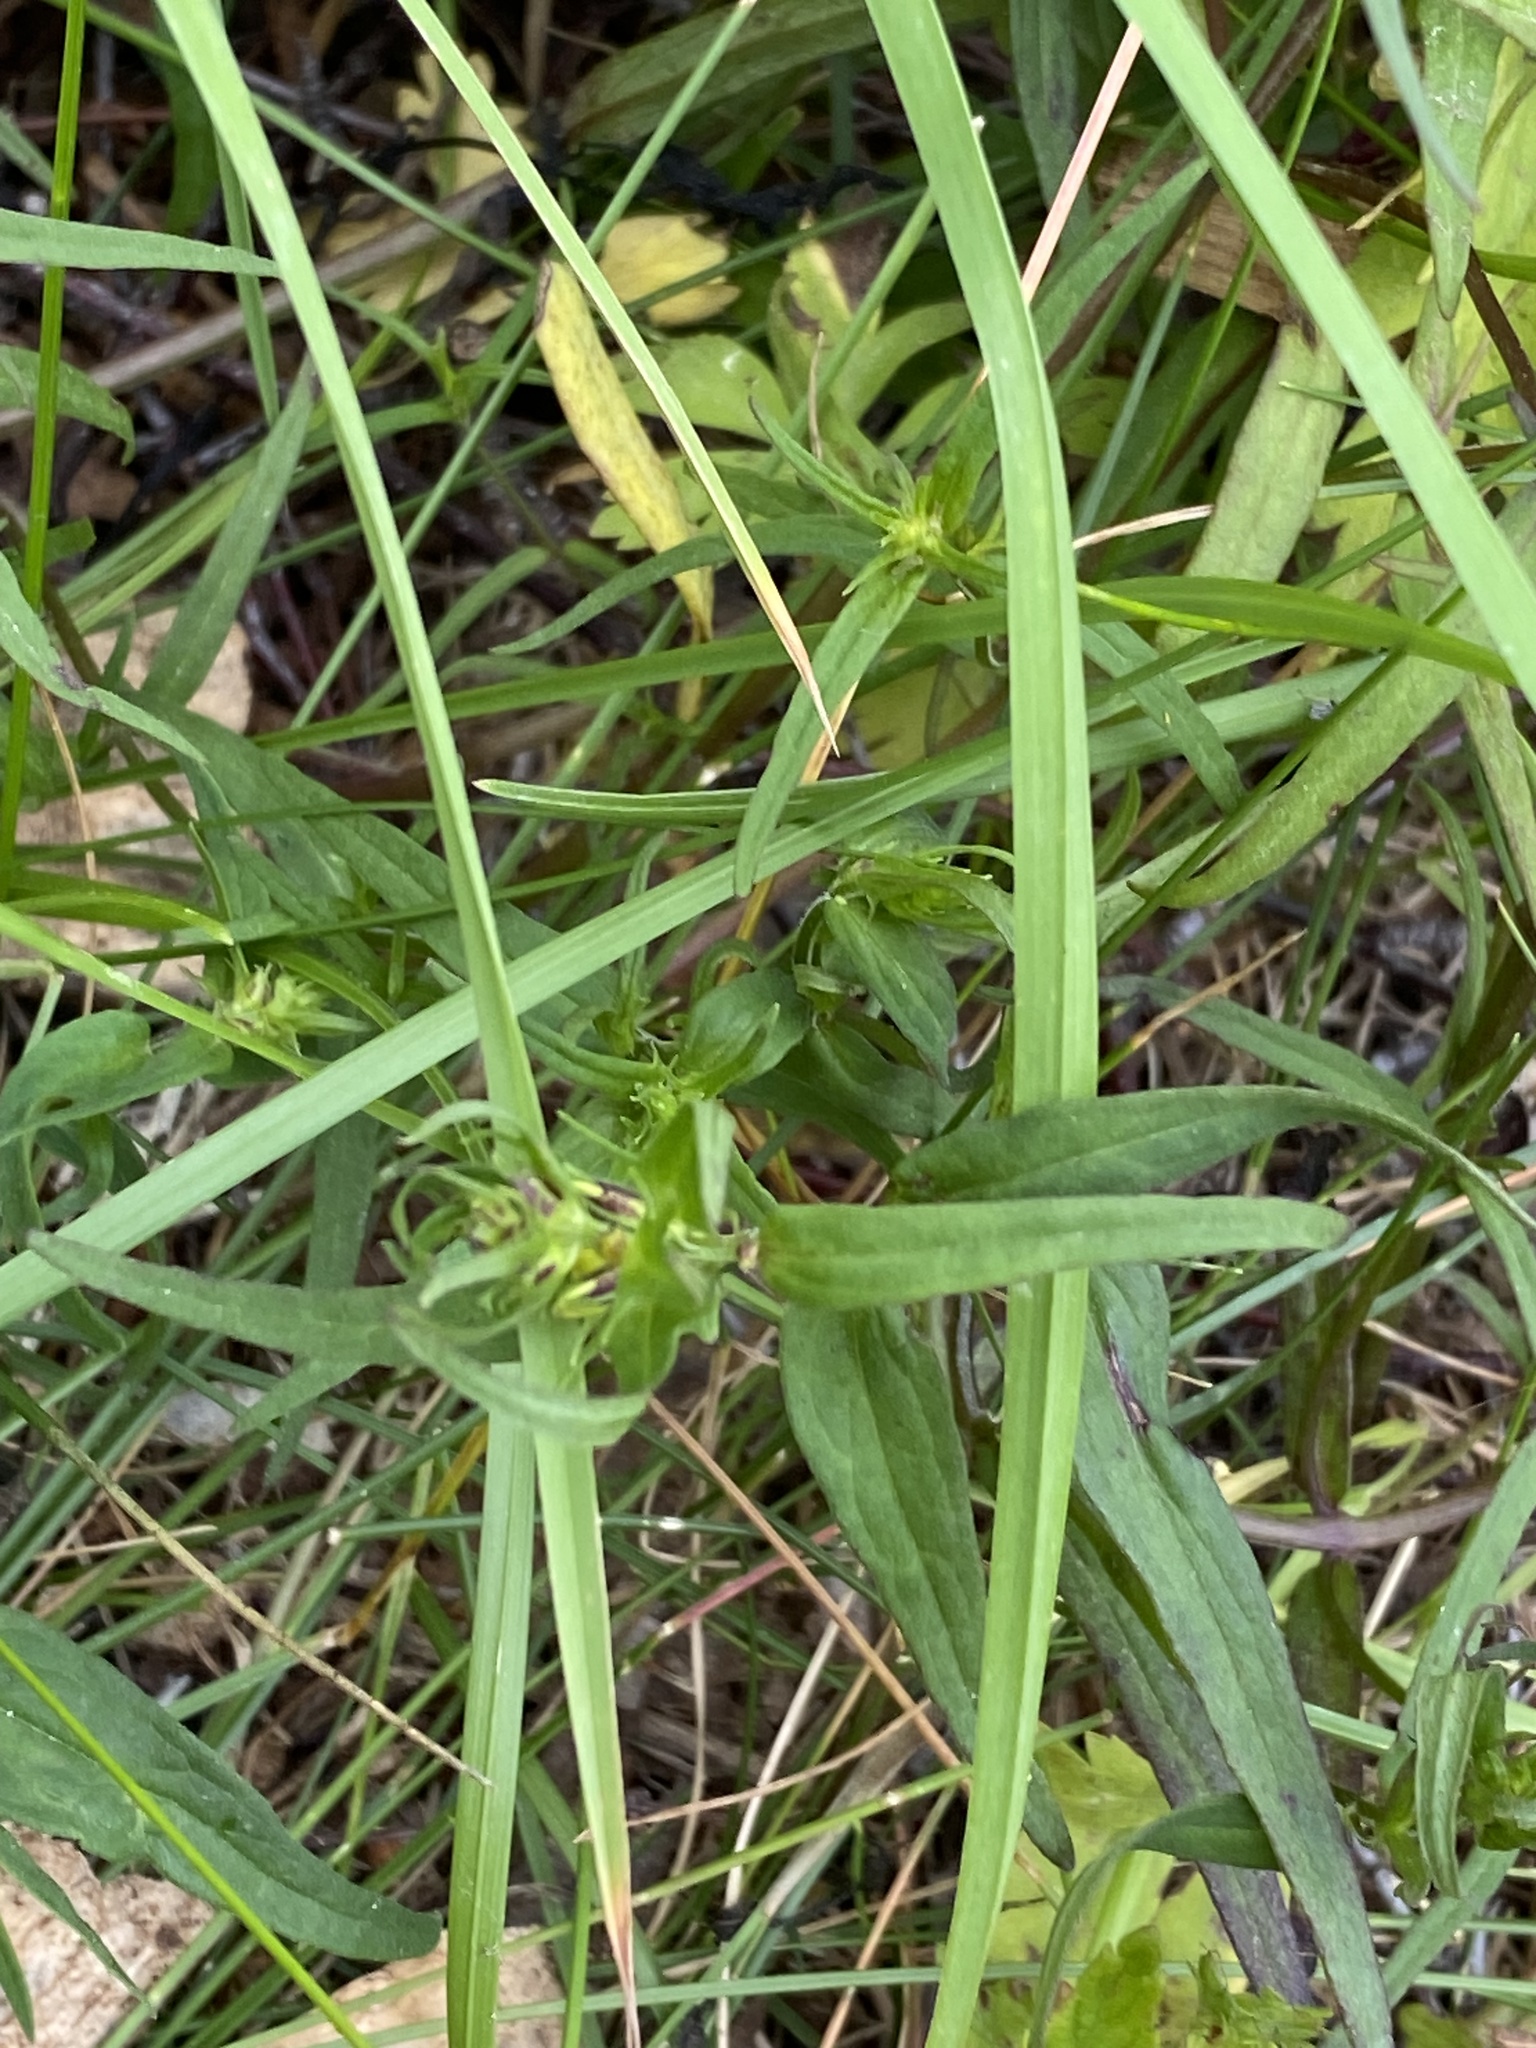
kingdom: Plantae
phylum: Tracheophyta
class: Magnoliopsida
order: Lamiales
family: Orobanchaceae
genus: Melampyrum
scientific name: Melampyrum pratense
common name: Common cow-wheat
